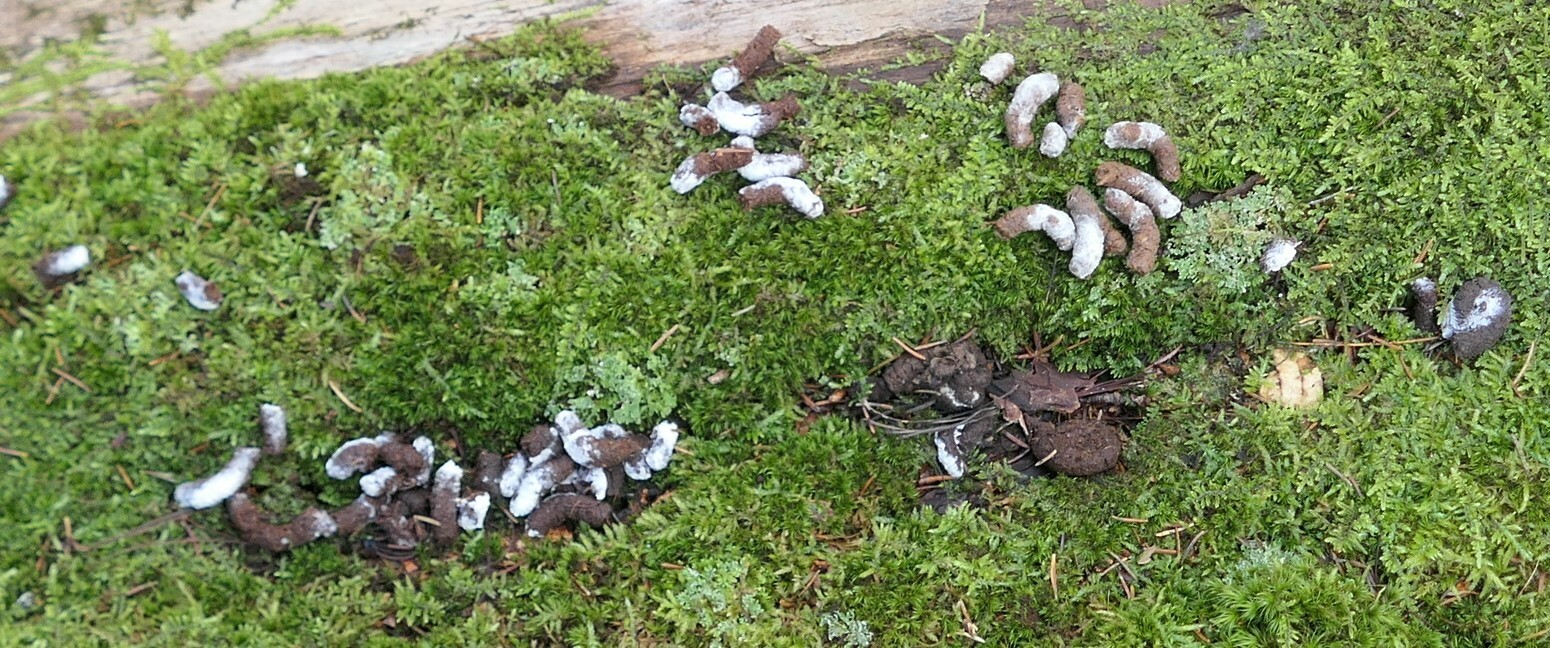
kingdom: Animalia
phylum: Chordata
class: Aves
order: Galliformes
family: Phasianidae
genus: Bonasa
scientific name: Bonasa umbellus
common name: Ruffed grouse
